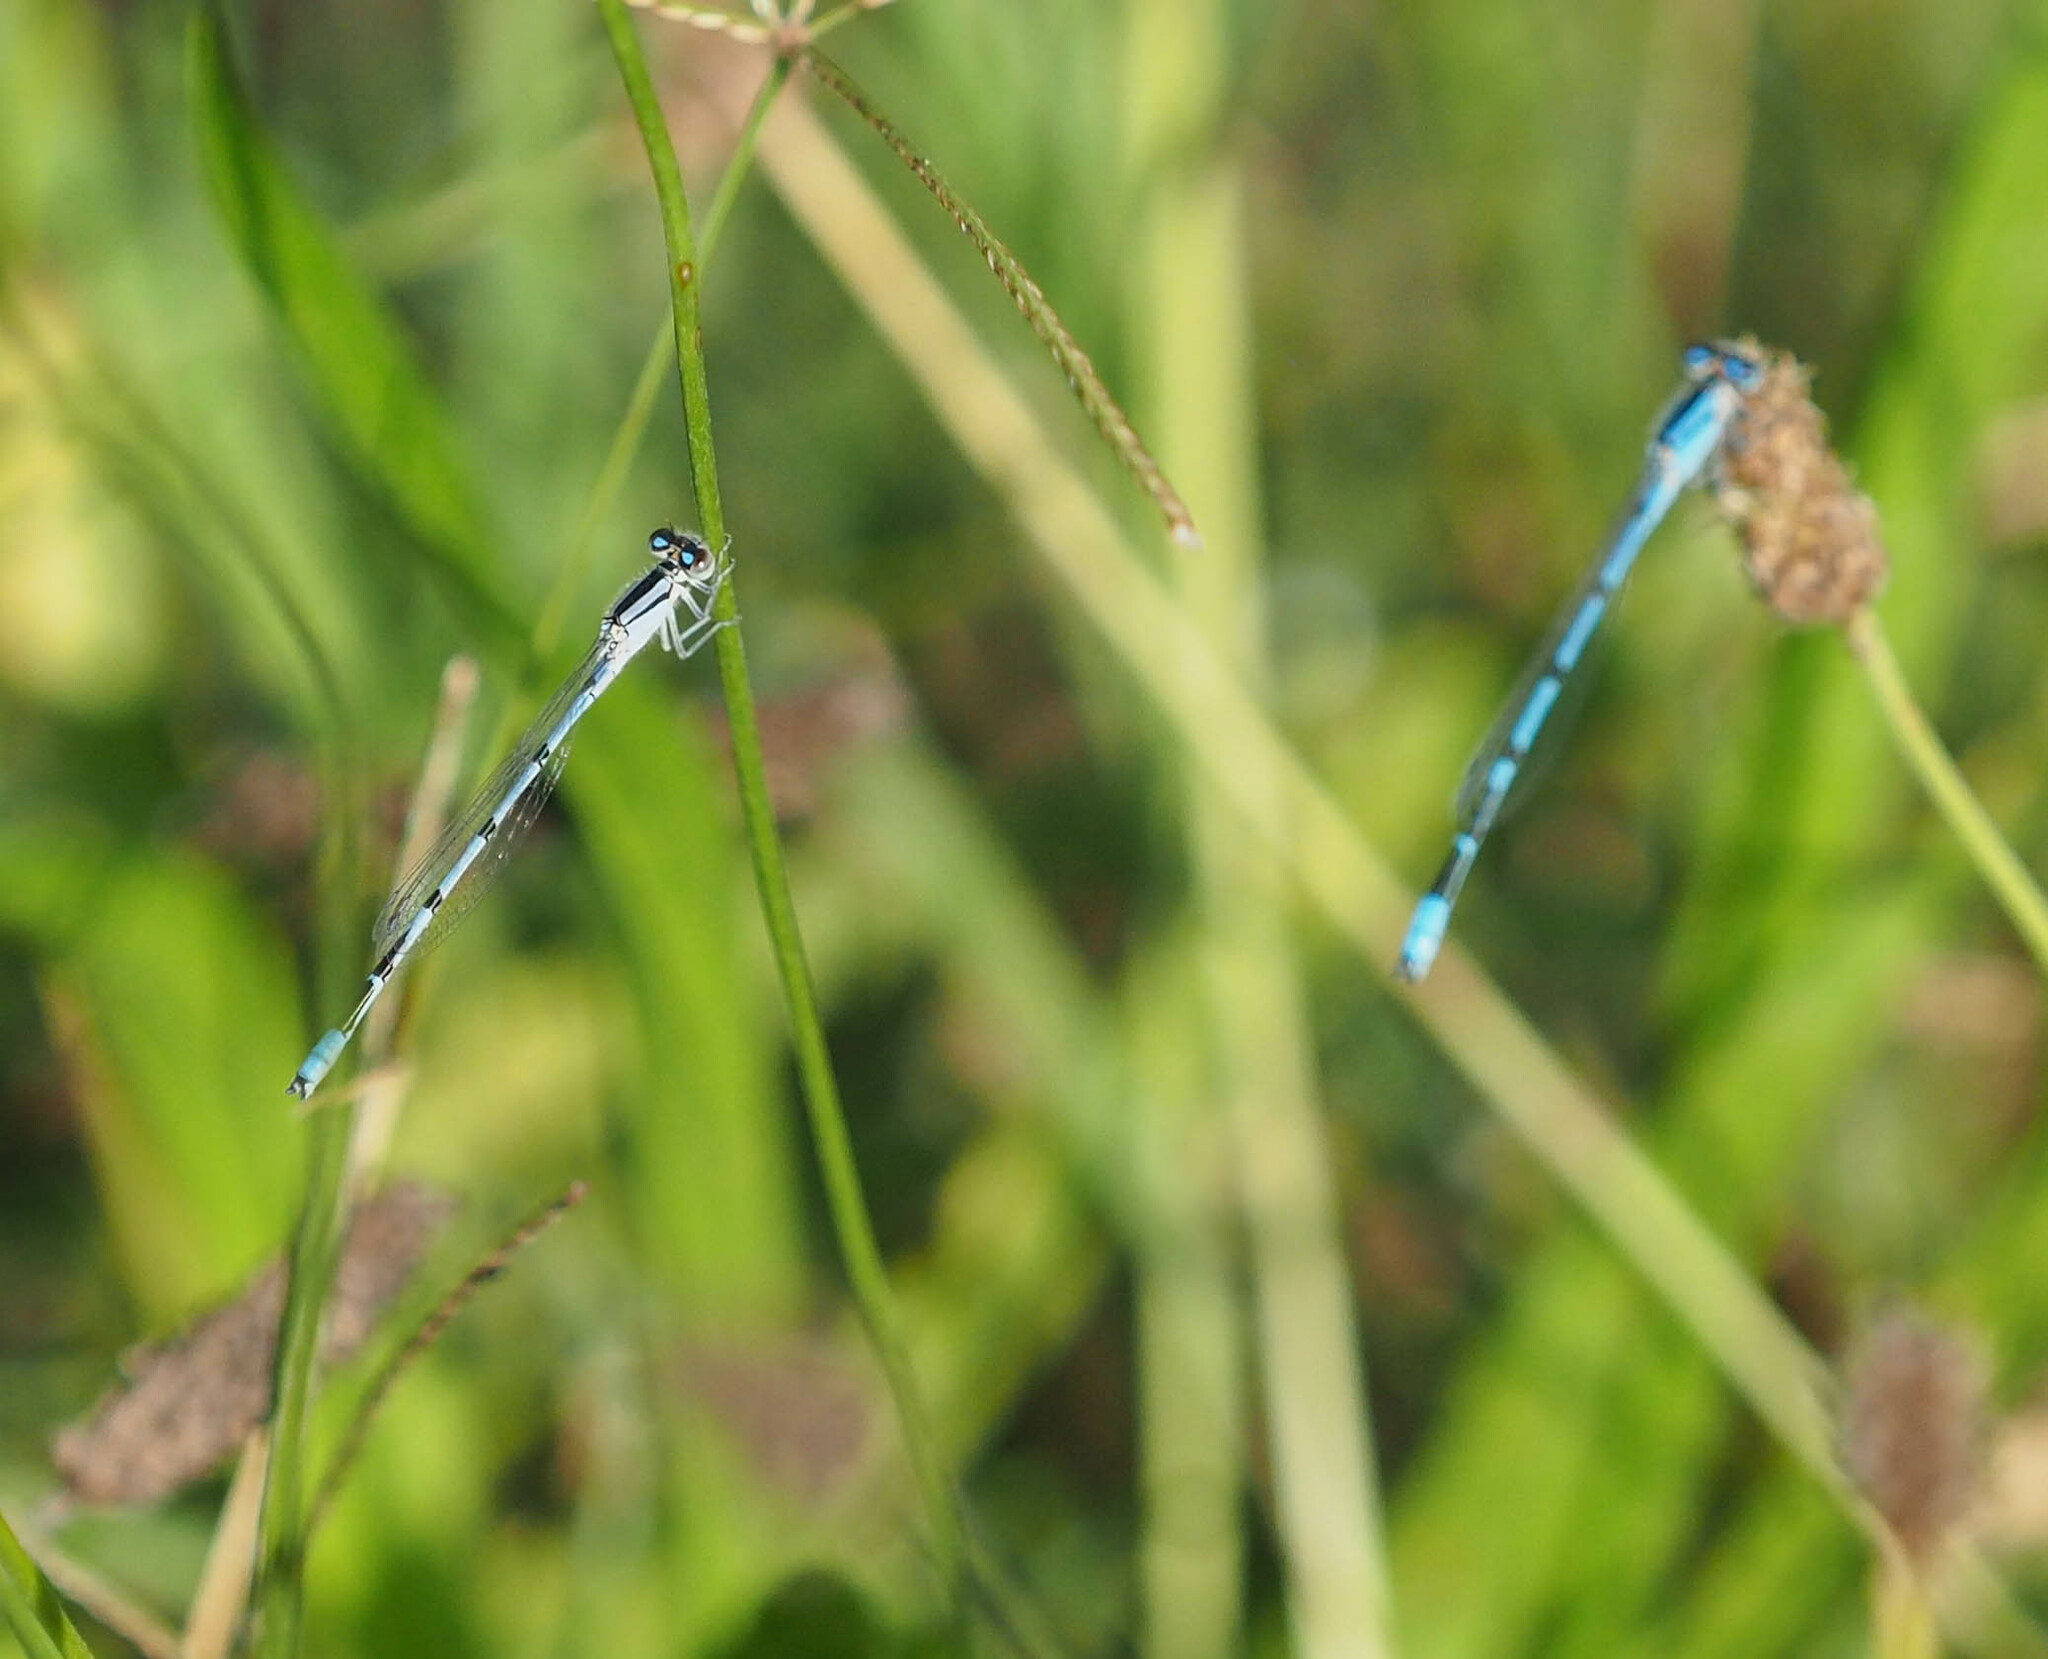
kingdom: Animalia
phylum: Arthropoda
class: Insecta
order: Odonata
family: Coenagrionidae
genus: Enallagma
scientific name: Enallagma civile
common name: Damselfly
